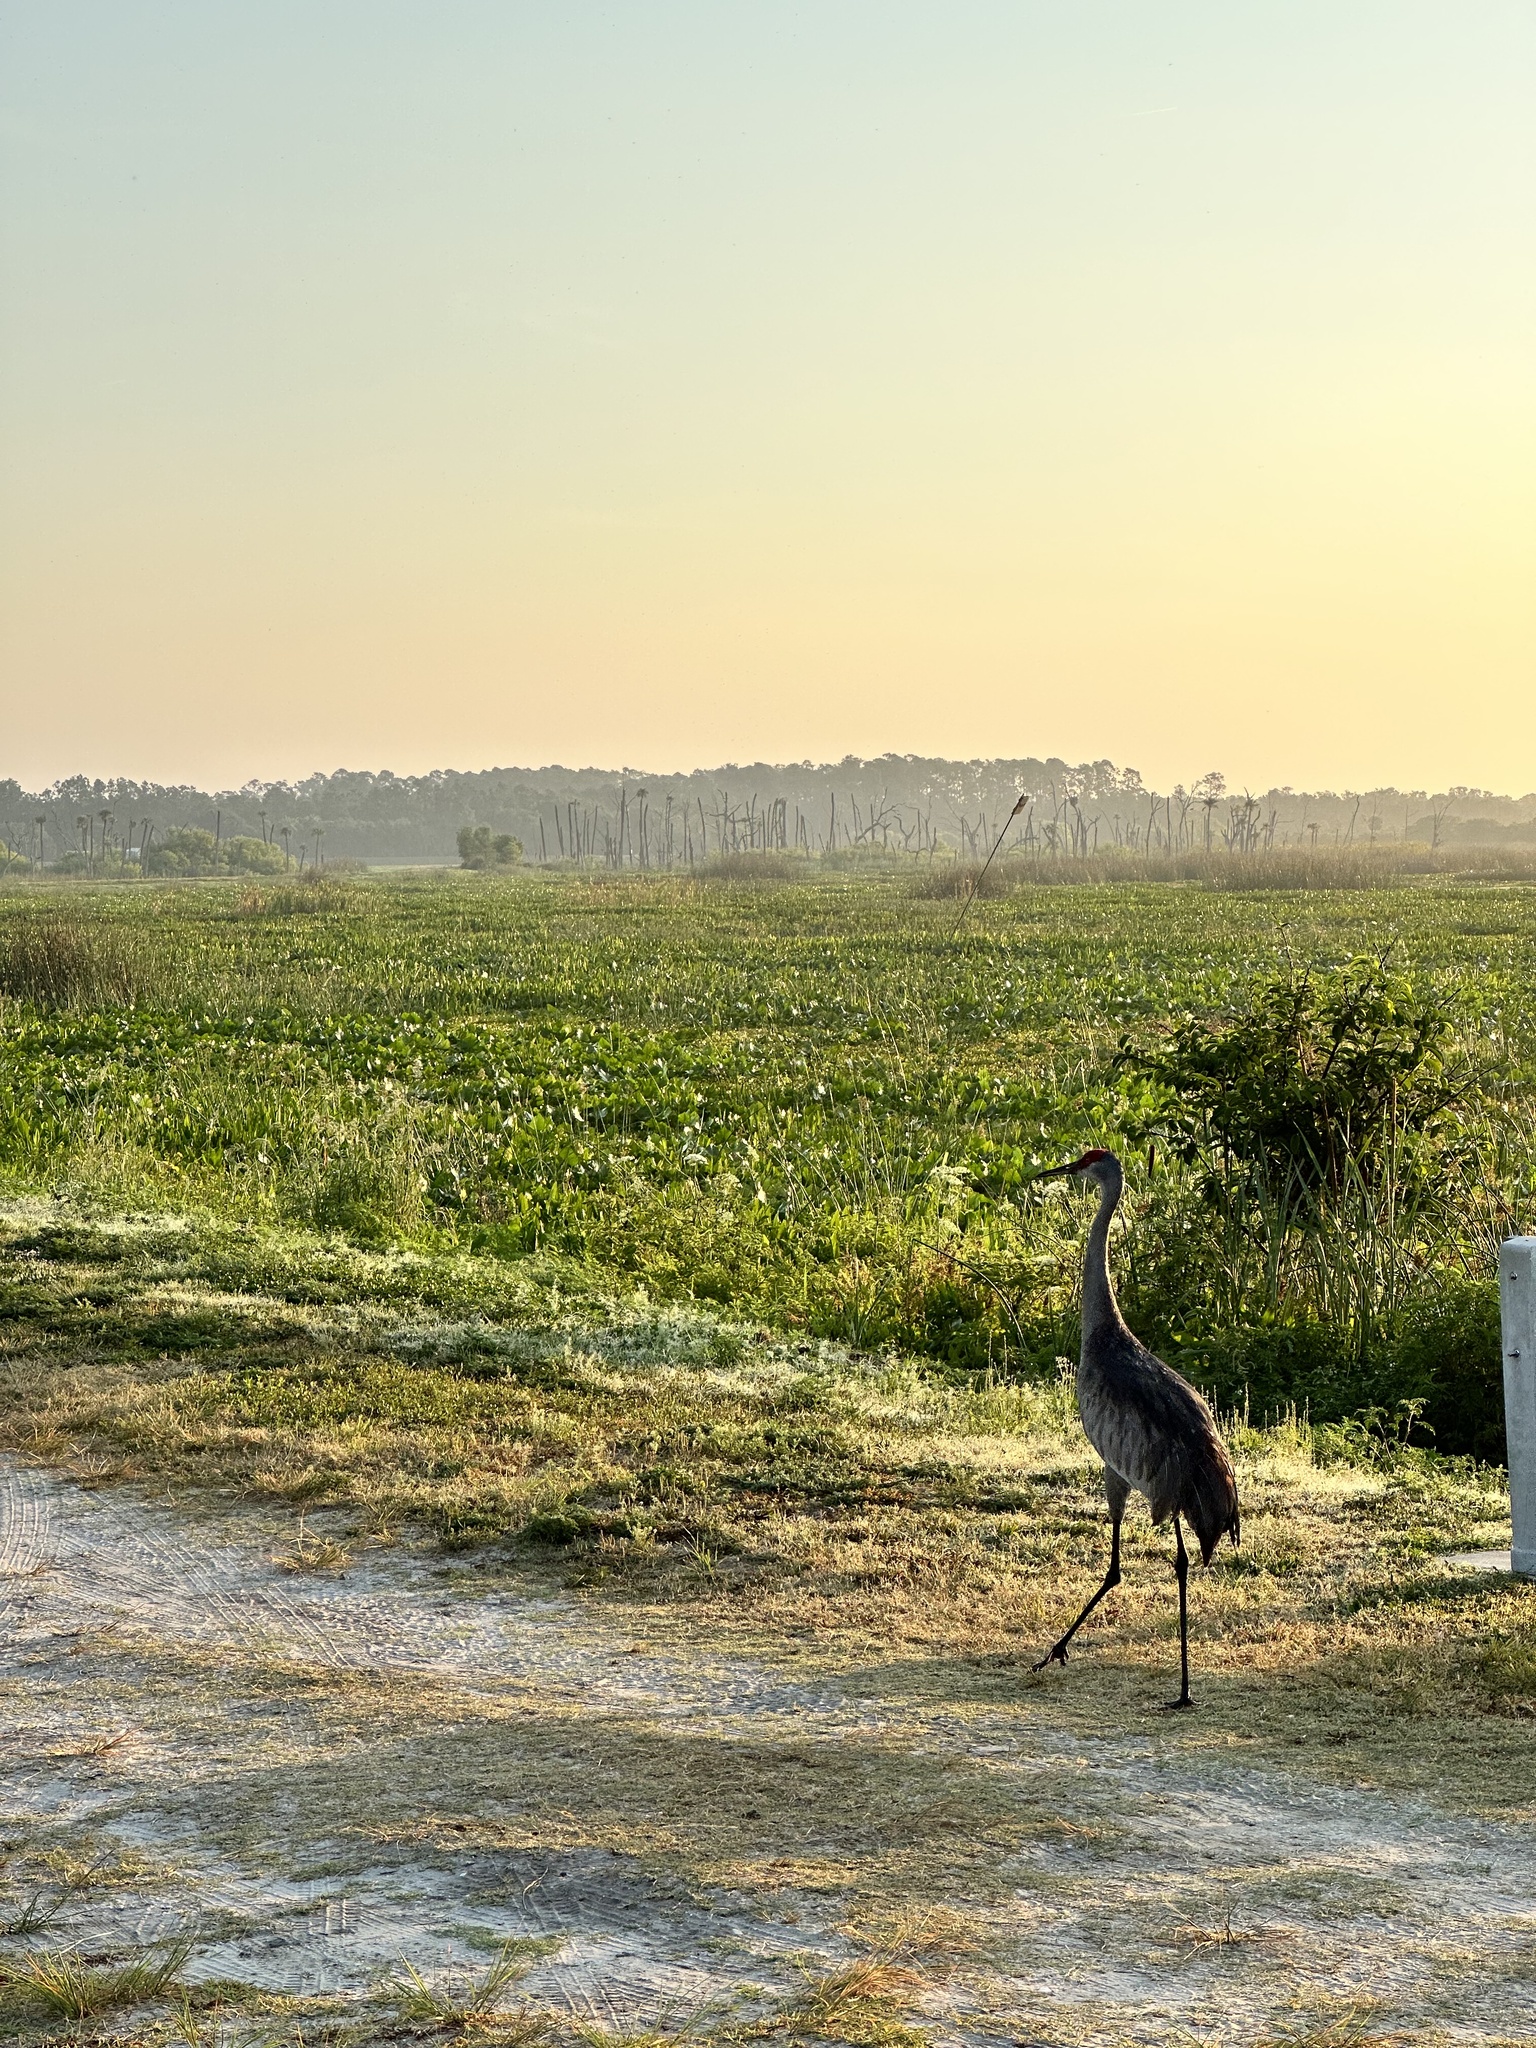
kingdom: Animalia
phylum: Chordata
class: Aves
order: Gruiformes
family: Gruidae
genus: Grus
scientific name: Grus canadensis
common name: Sandhill crane
